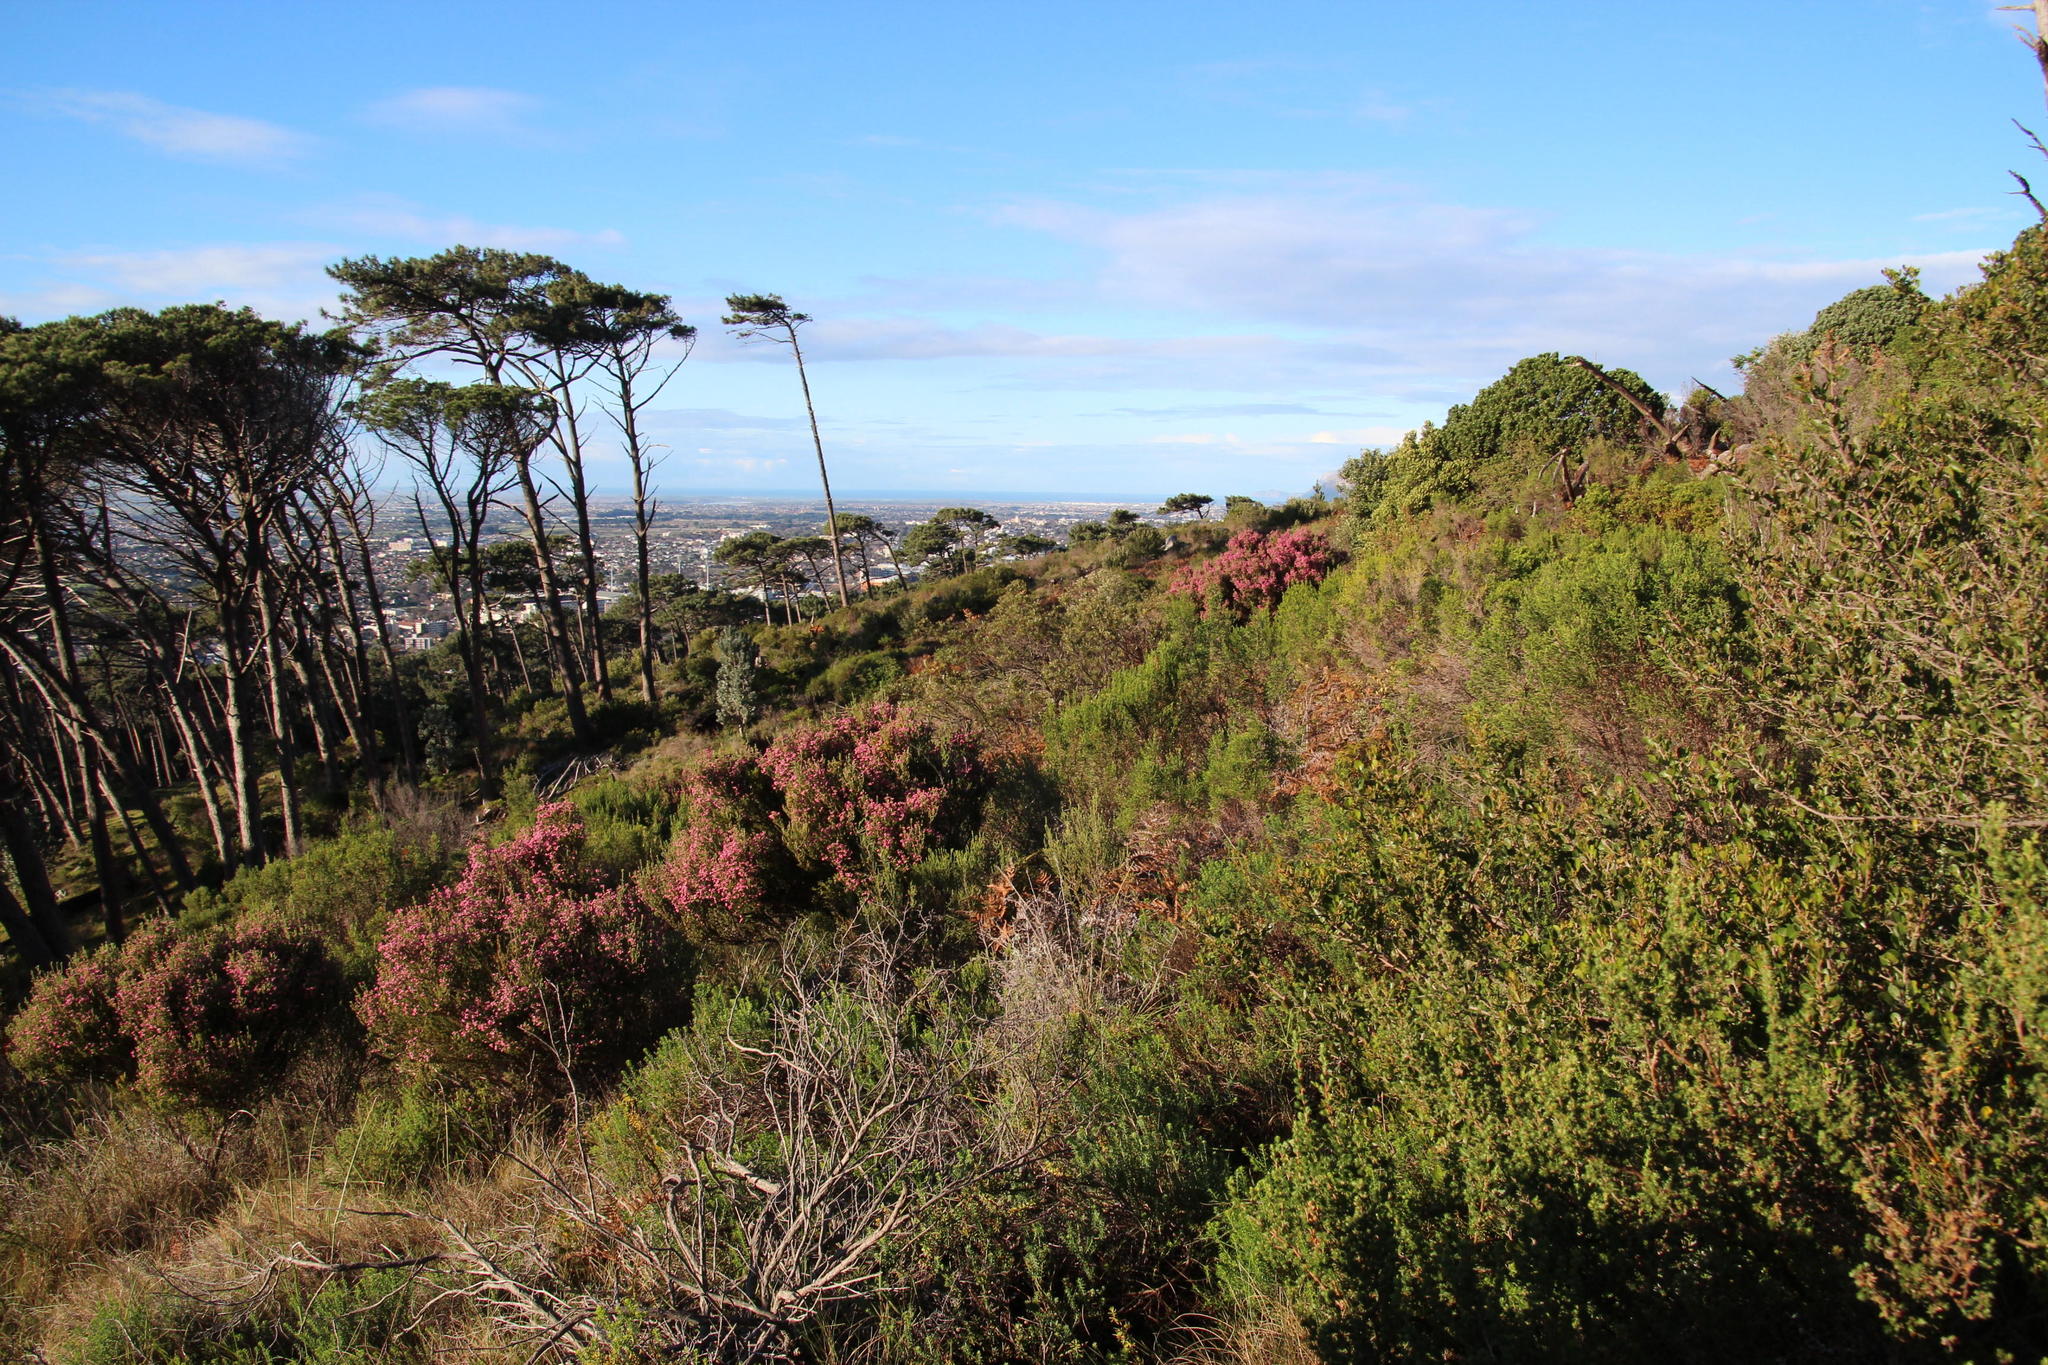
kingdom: Plantae
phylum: Tracheophyta
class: Magnoliopsida
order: Ericales
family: Ericaceae
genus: Erica
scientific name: Erica baccans
